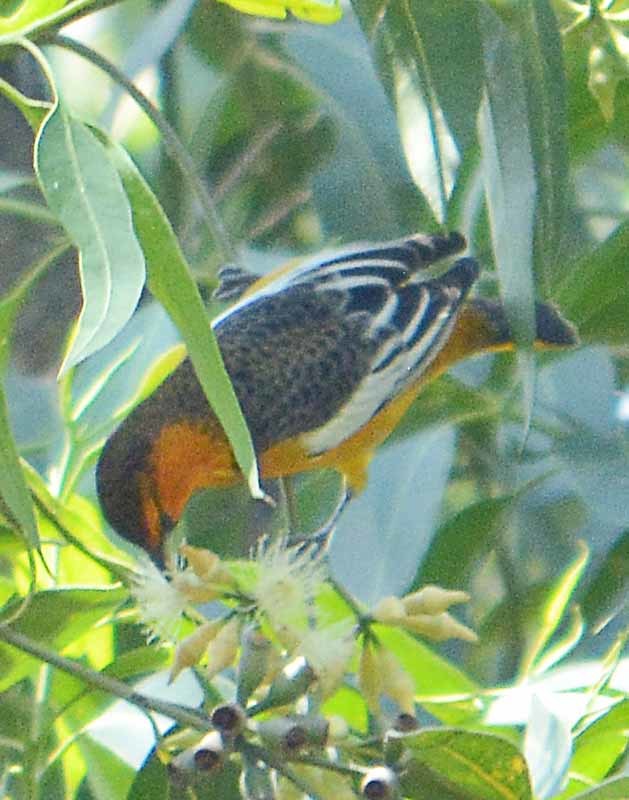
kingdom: Animalia
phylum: Chordata
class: Aves
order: Passeriformes
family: Icteridae
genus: Icterus
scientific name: Icterus bullockii
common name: Bullock's oriole
